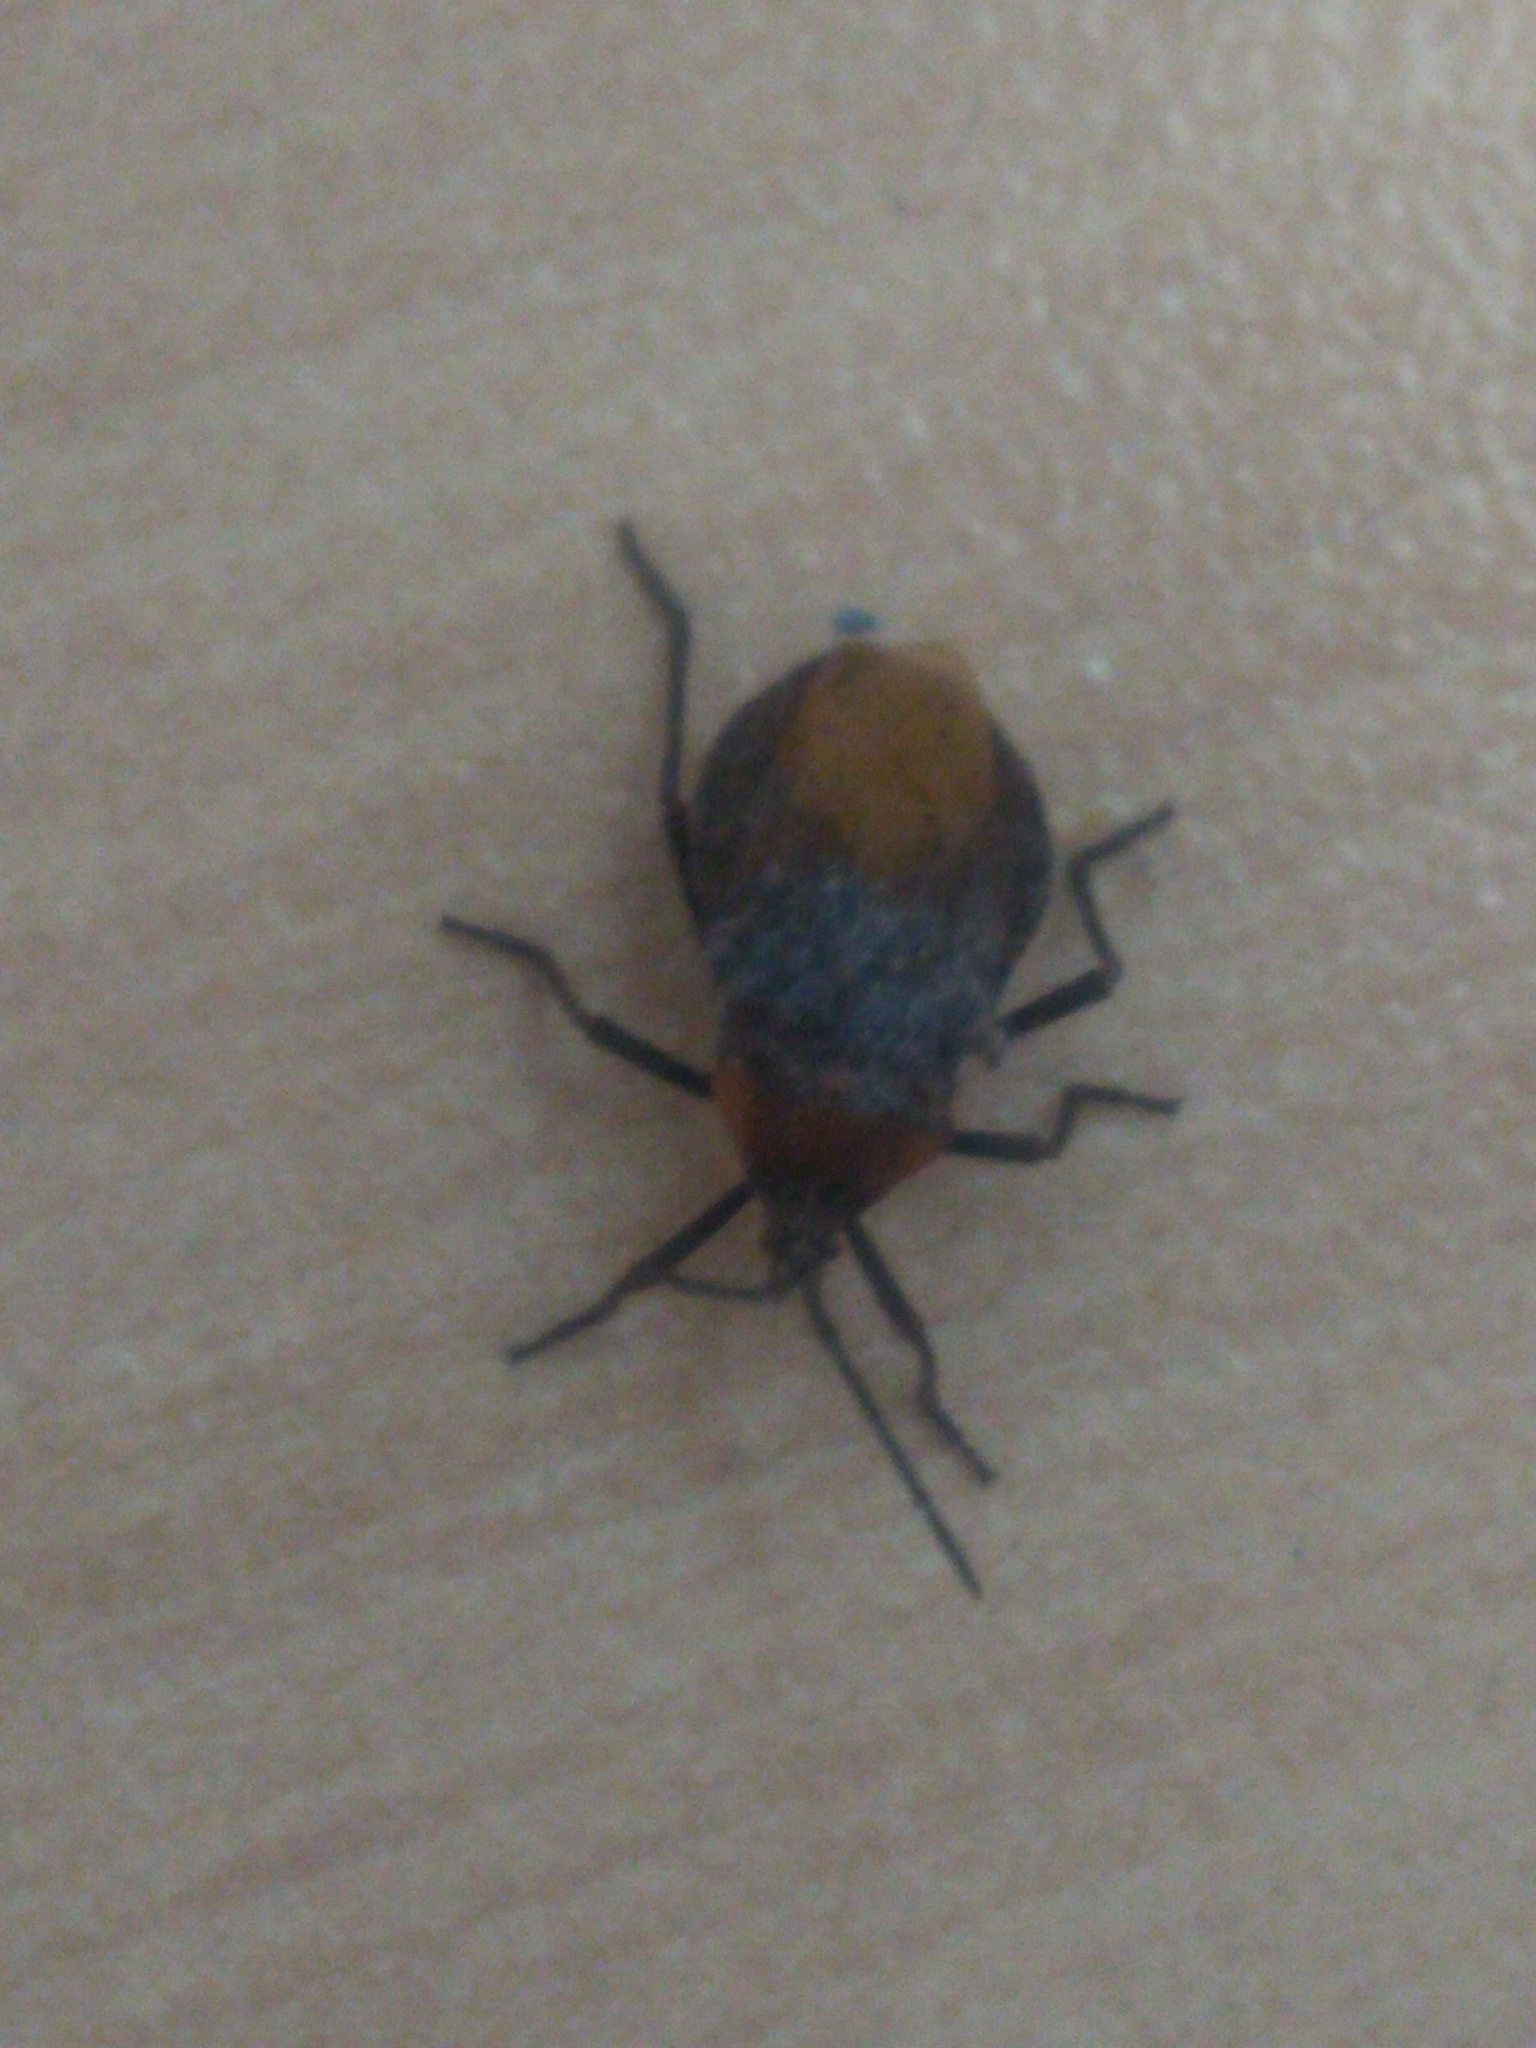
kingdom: Animalia
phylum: Arthropoda
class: Insecta
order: Hemiptera
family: Coreidae
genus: Spartocera
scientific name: Spartocera batatas
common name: Giant sweetpotato bug
